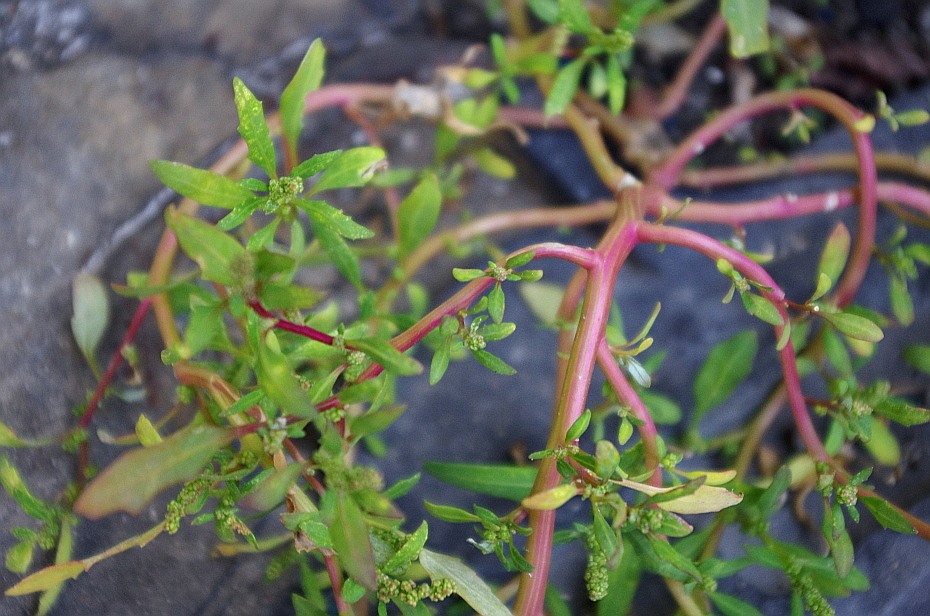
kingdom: Plantae
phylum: Tracheophyta
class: Magnoliopsida
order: Caryophyllales
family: Amaranthaceae
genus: Oxybasis
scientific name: Oxybasis glauca
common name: Glaucous goosefoot
